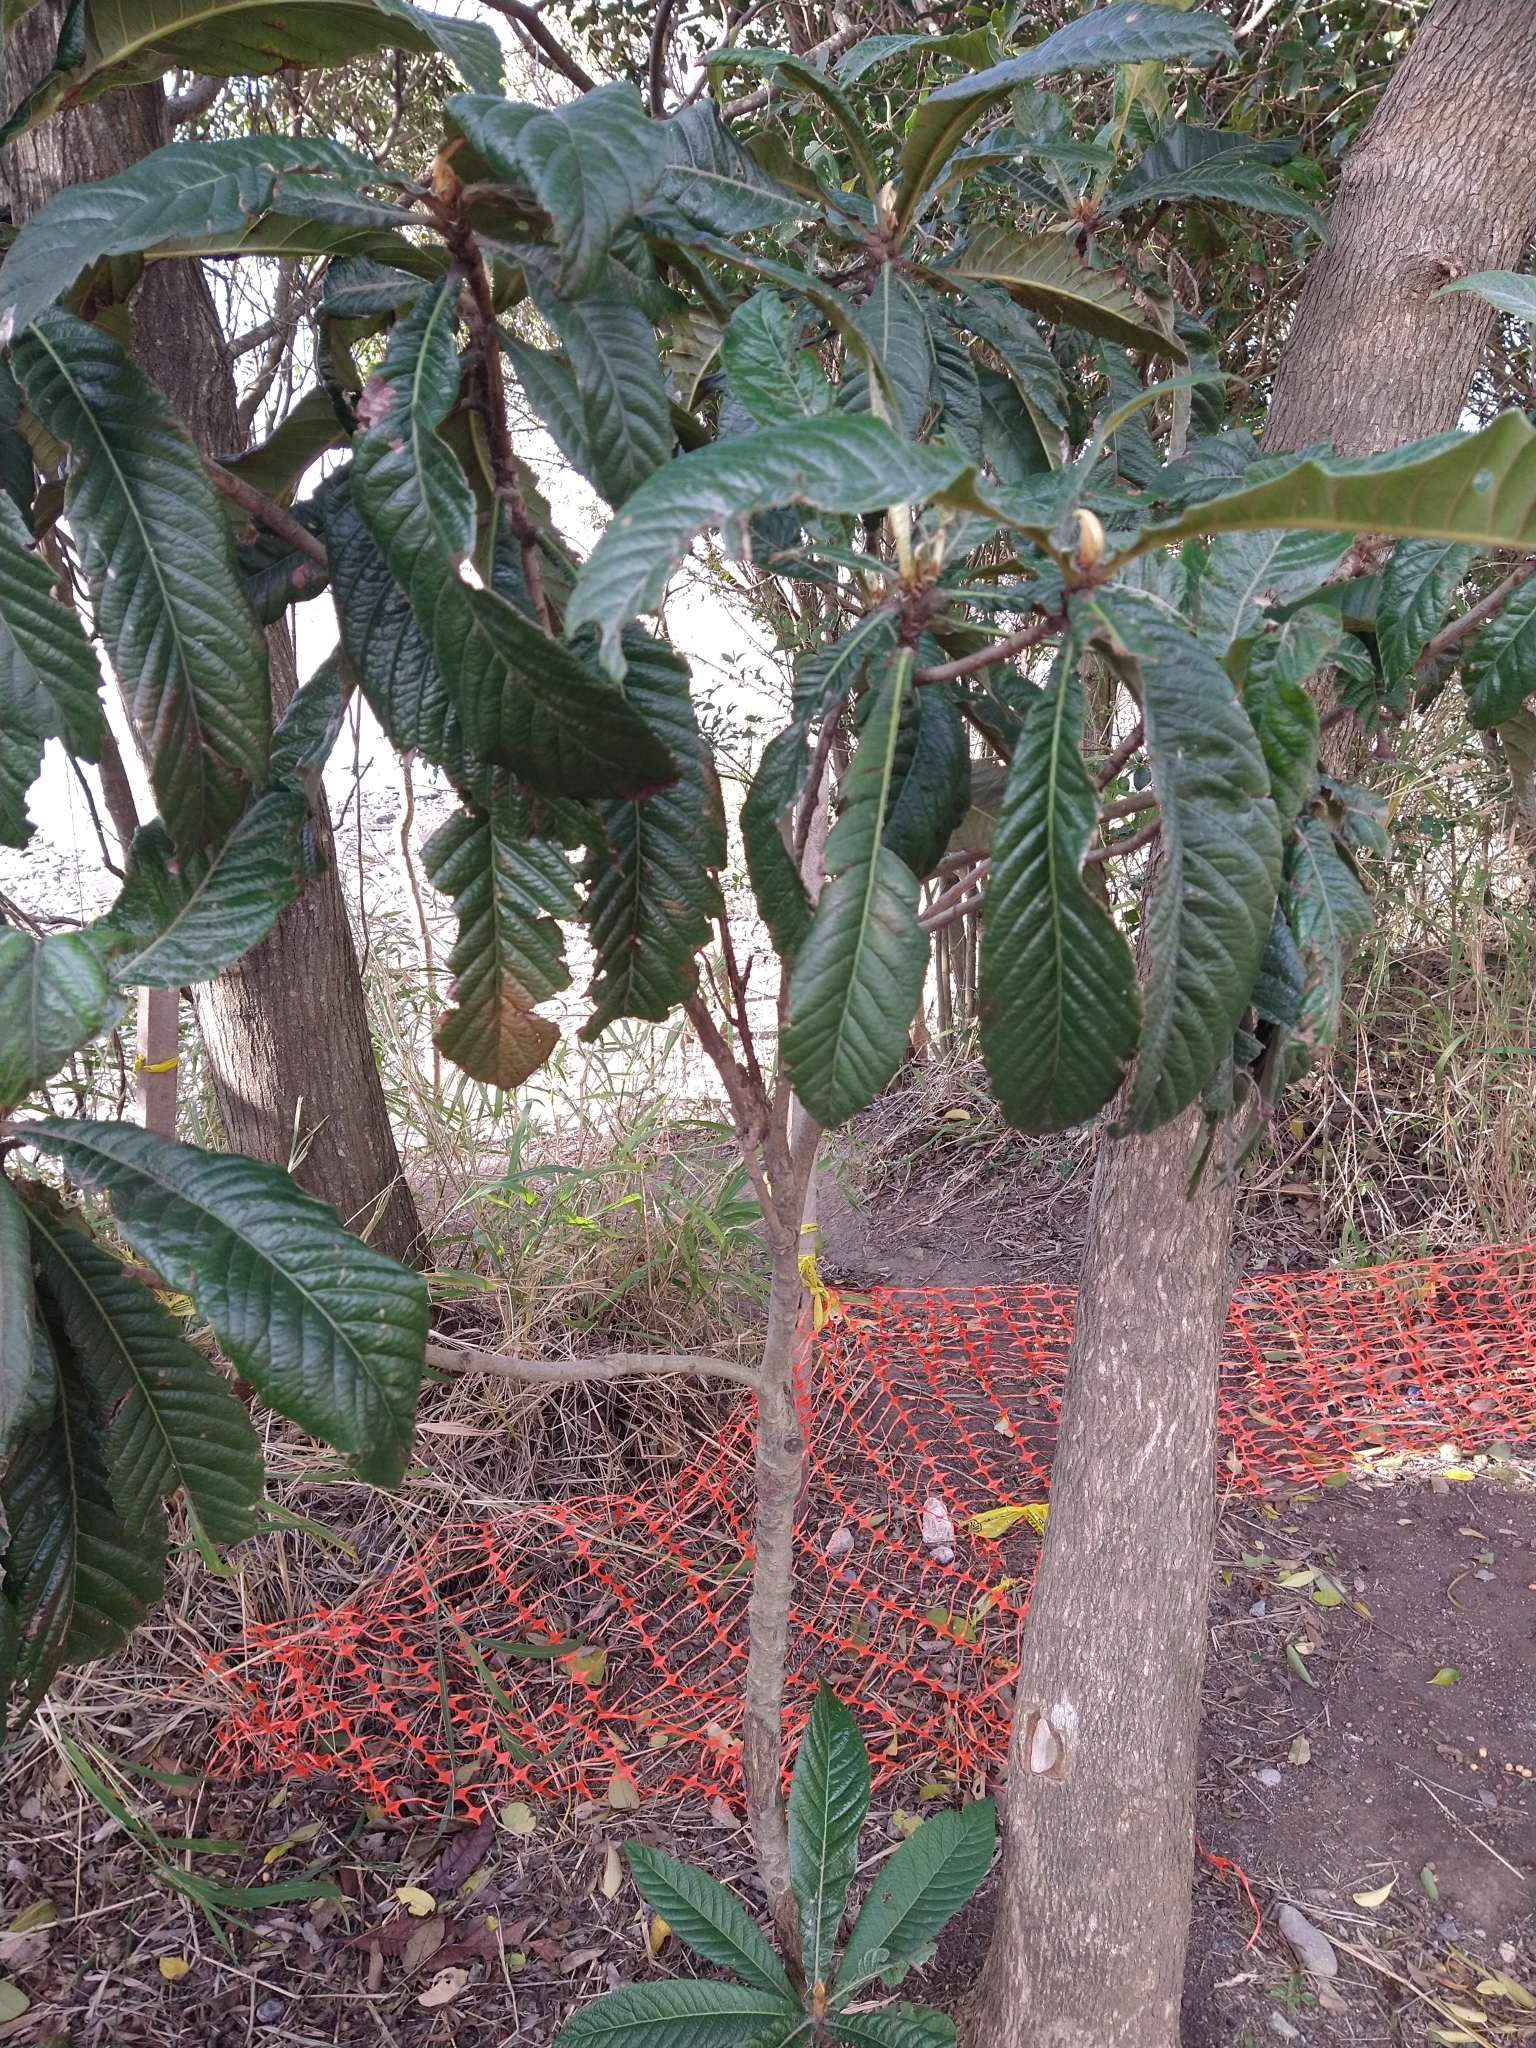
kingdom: Plantae
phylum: Tracheophyta
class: Magnoliopsida
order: Rosales
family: Rosaceae
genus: Rhaphiolepis
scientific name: Rhaphiolepis bibas
